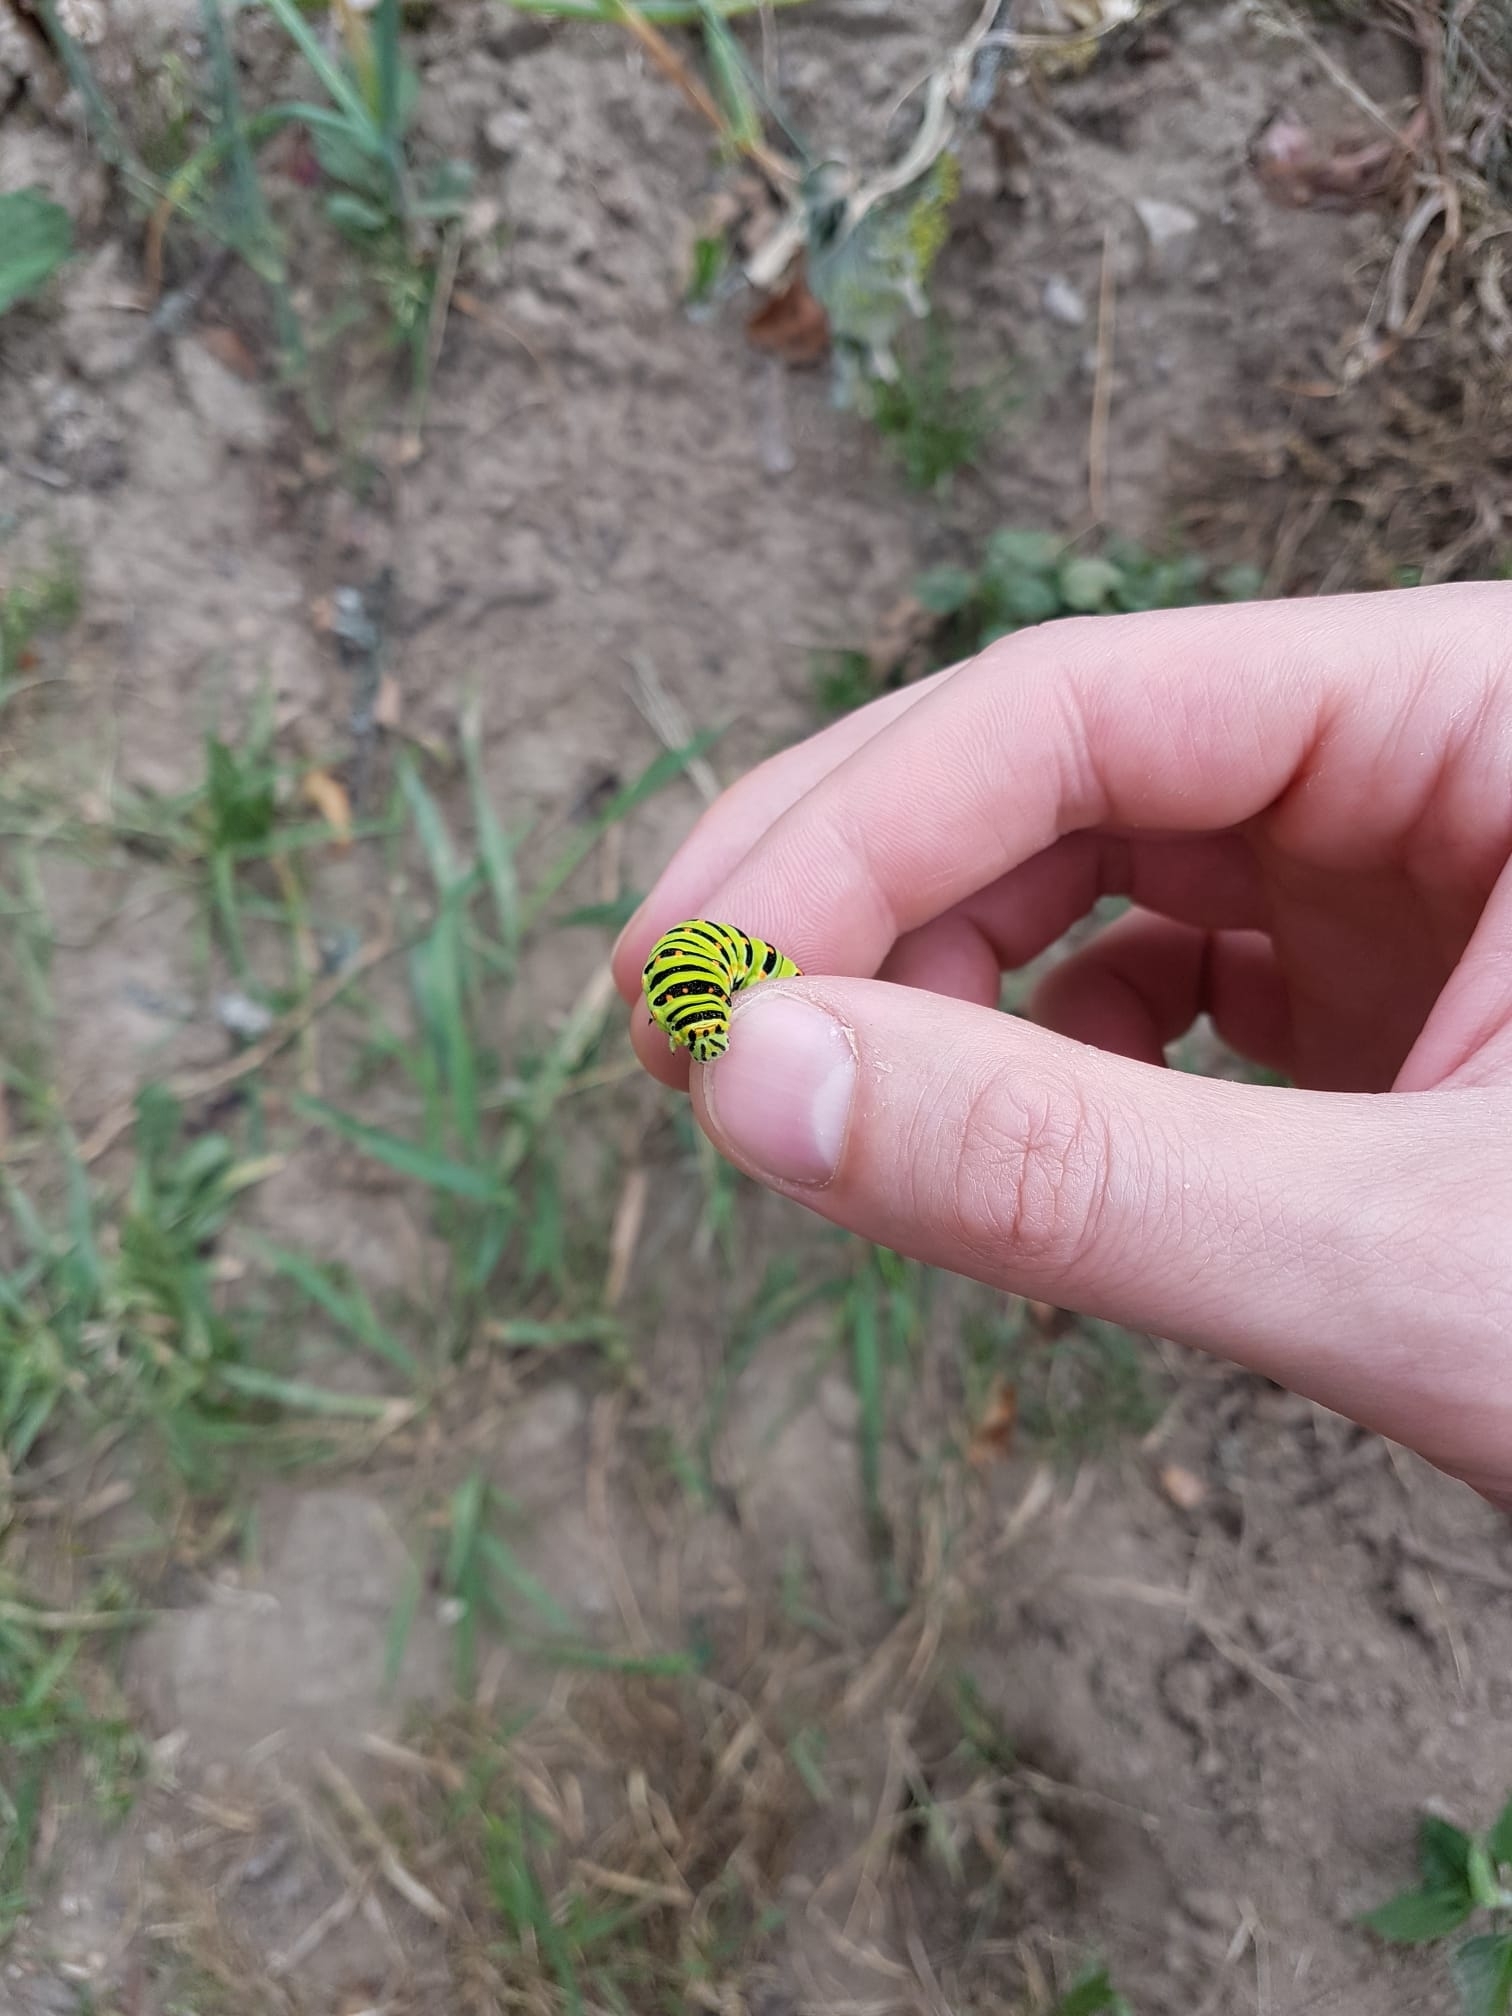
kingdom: Animalia
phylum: Arthropoda
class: Insecta
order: Lepidoptera
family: Papilionidae
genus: Papilio
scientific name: Papilio machaon
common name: Swallowtail
